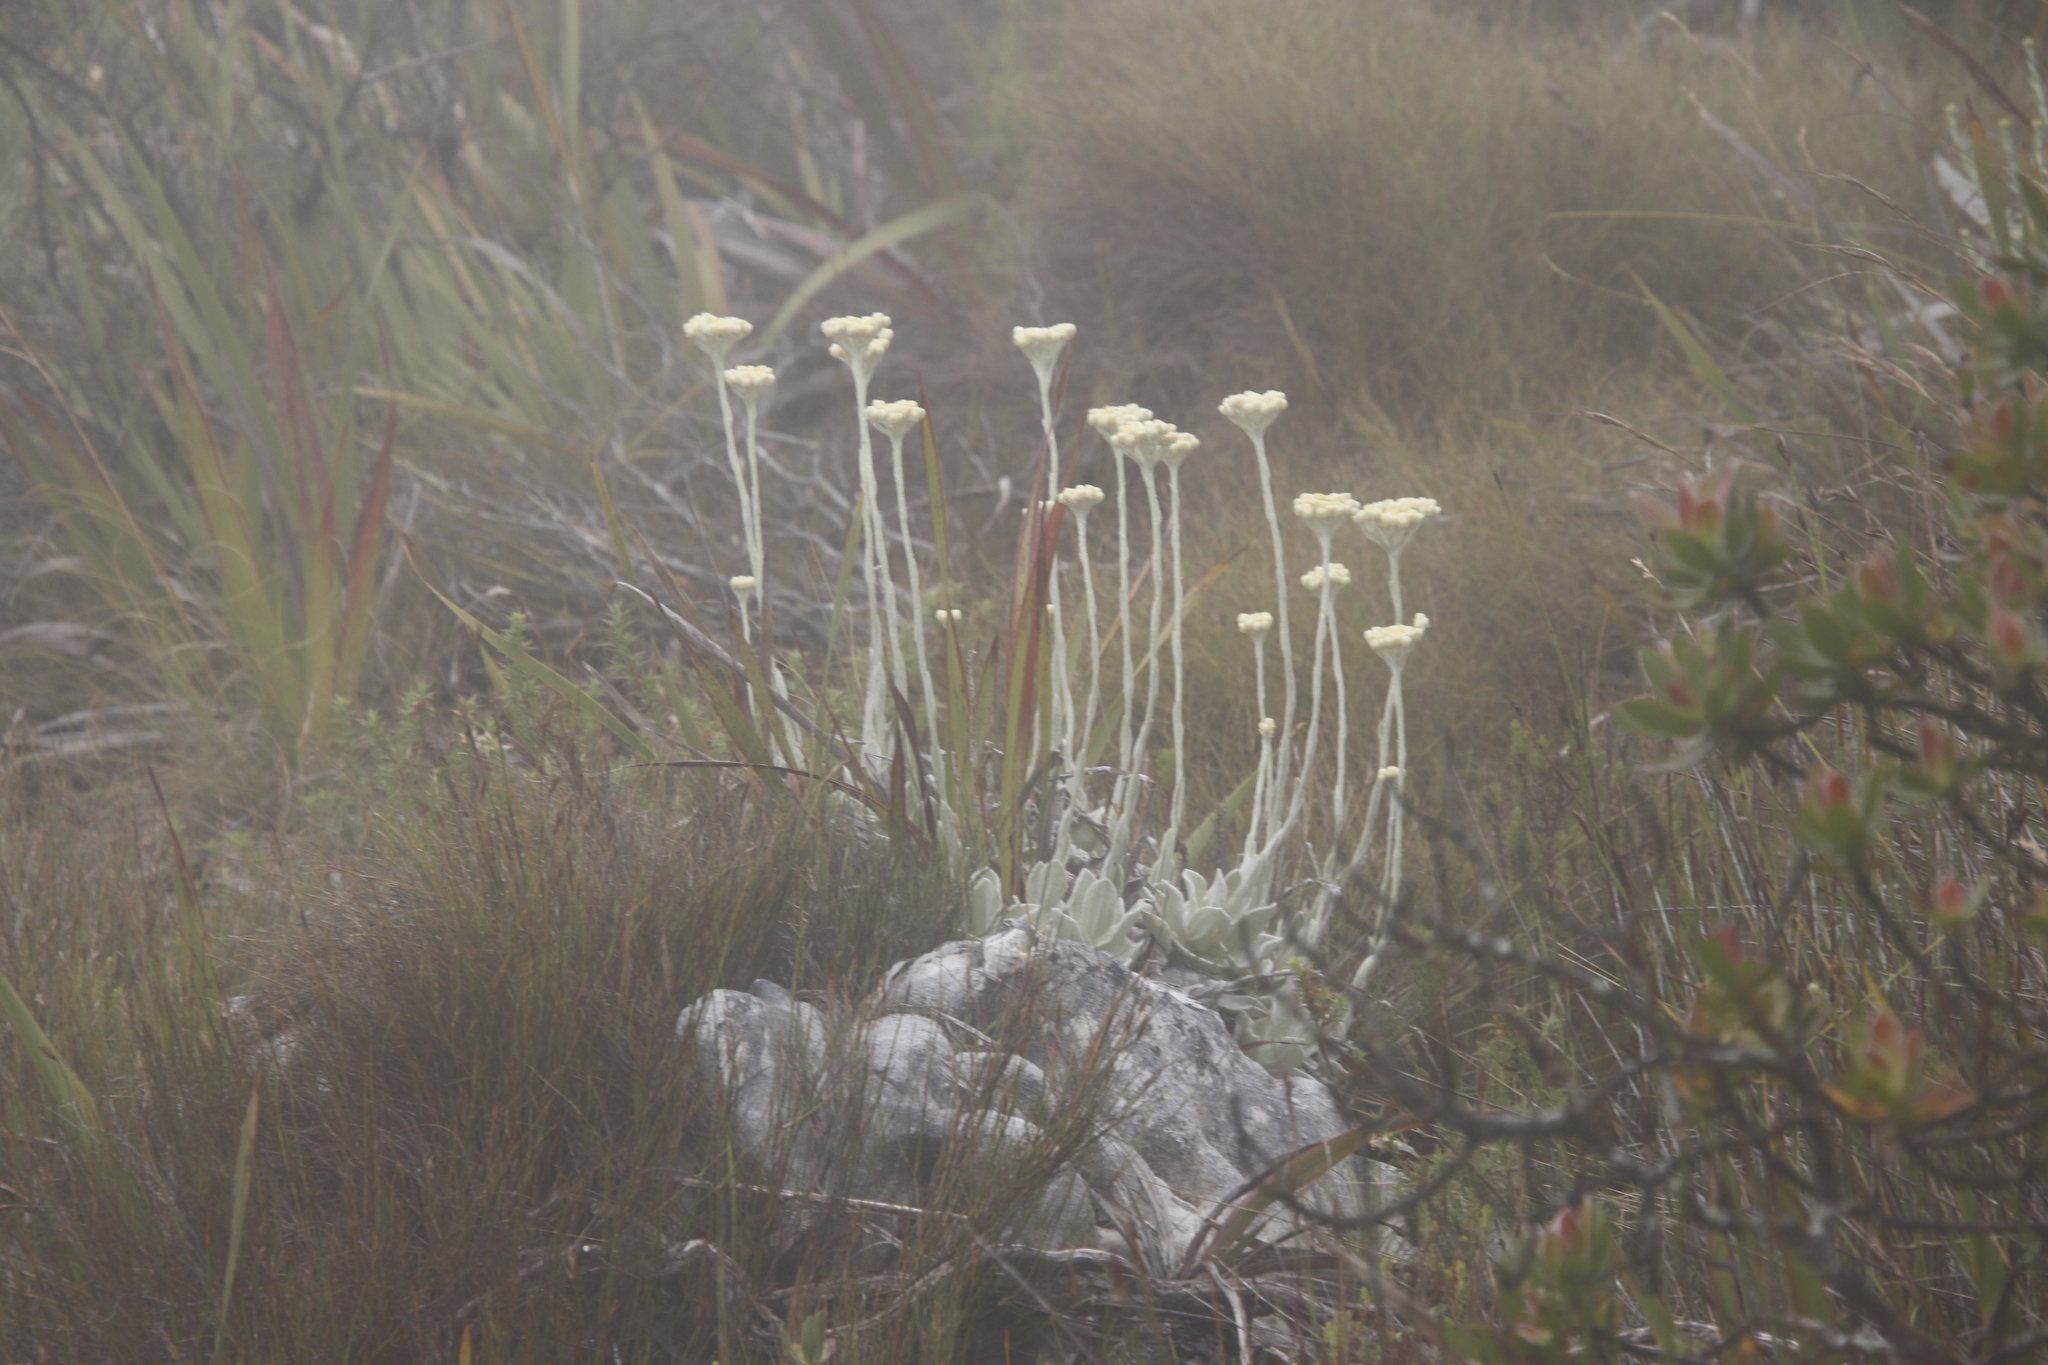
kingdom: Plantae
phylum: Tracheophyta
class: Magnoliopsida
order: Asterales
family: Asteraceae
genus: Helichrysum
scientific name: Helichrysum grandiflorum
